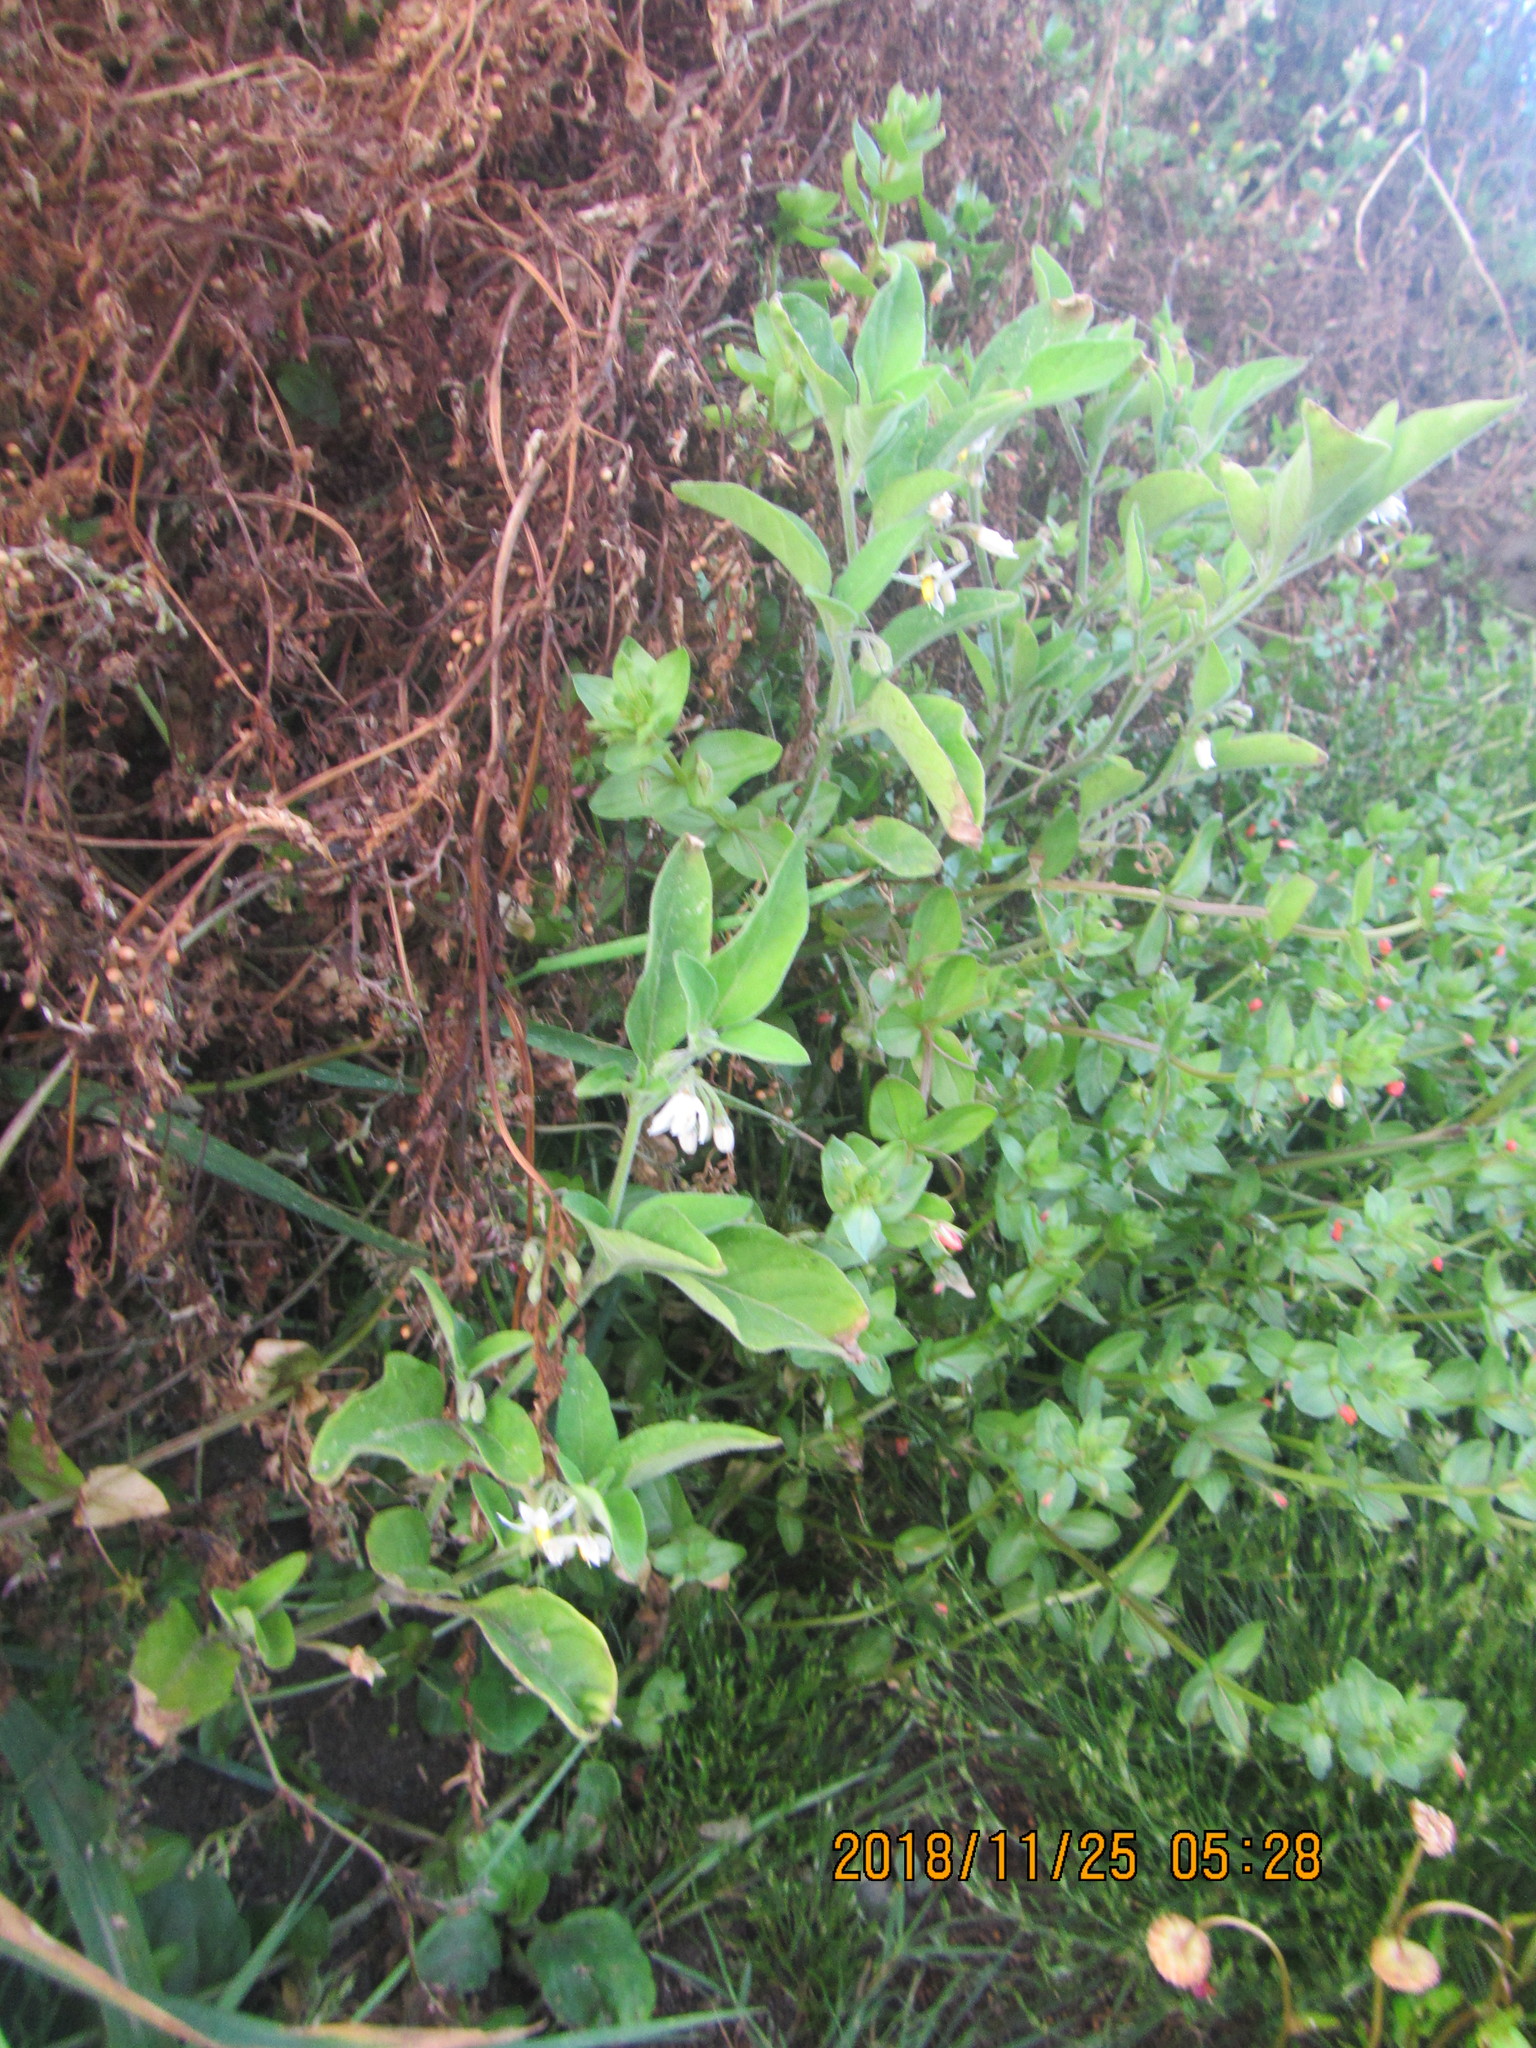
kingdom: Plantae
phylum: Tracheophyta
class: Magnoliopsida
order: Solanales
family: Solanaceae
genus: Solanum
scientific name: Solanum chenopodioides
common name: Tall nightshade
